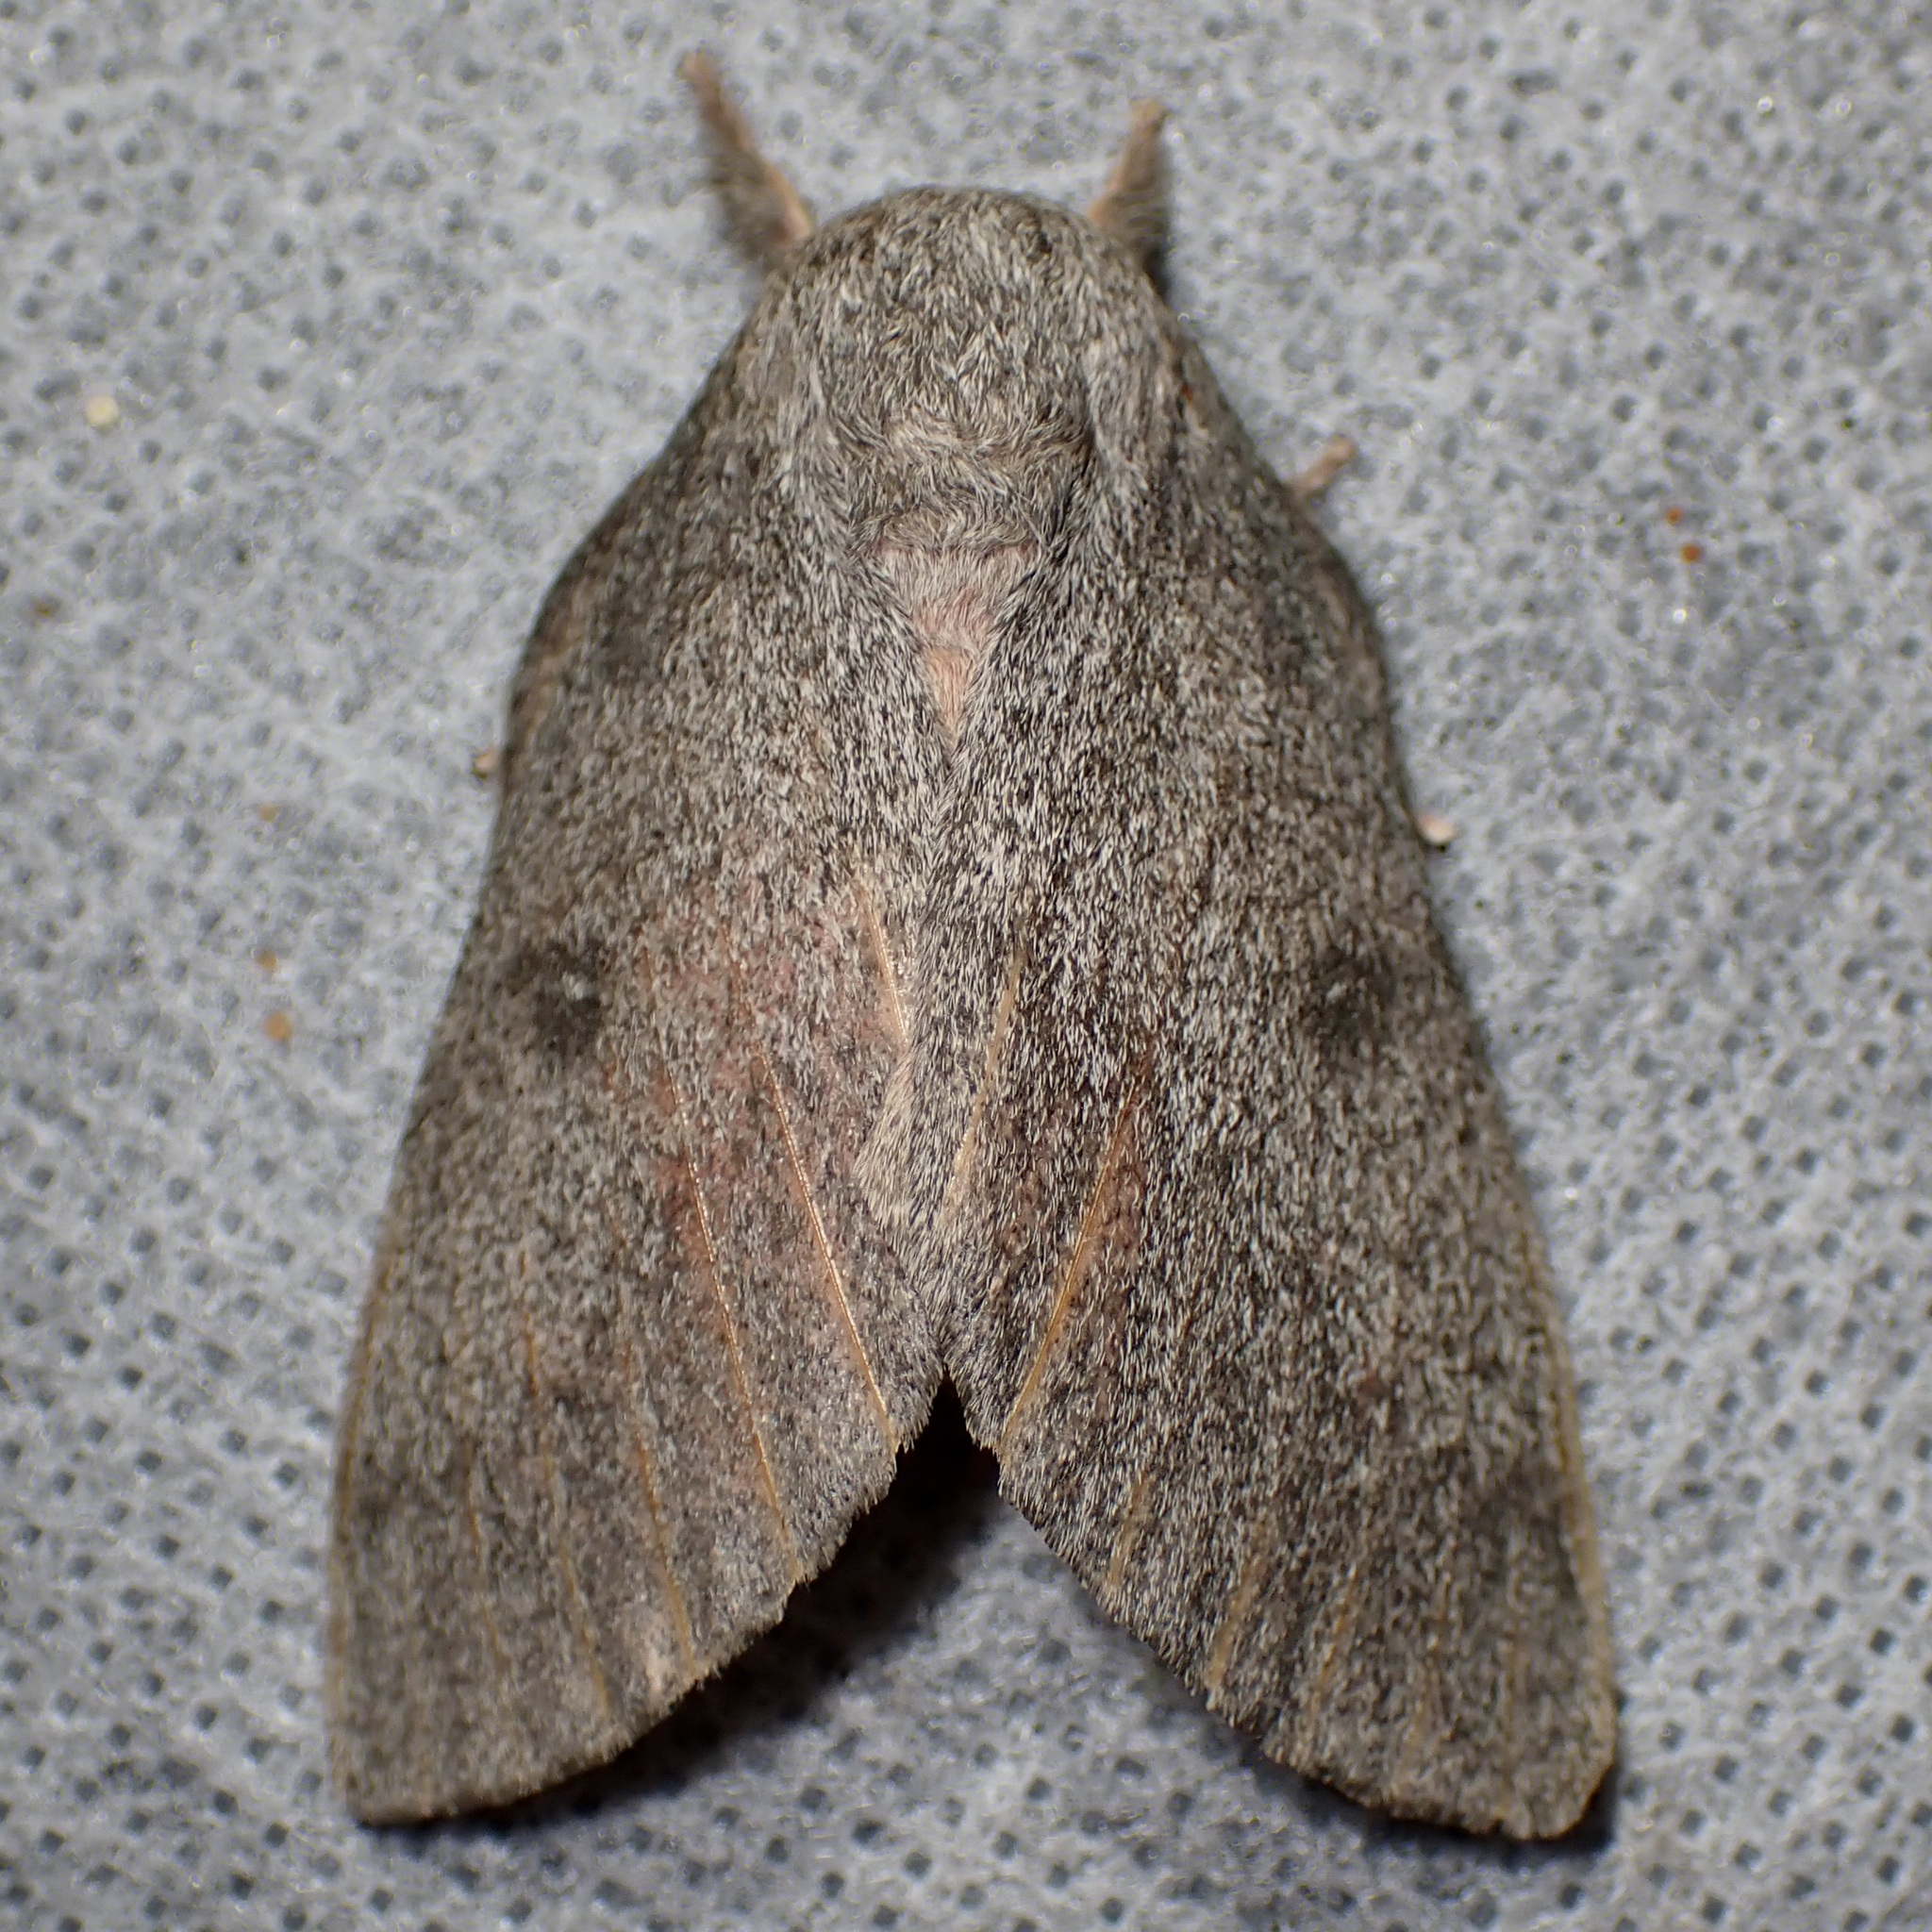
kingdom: Animalia
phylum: Arthropoda
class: Insecta
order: Lepidoptera
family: Saturniidae
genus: Syssphinx
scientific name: Syssphinx hubbardi
